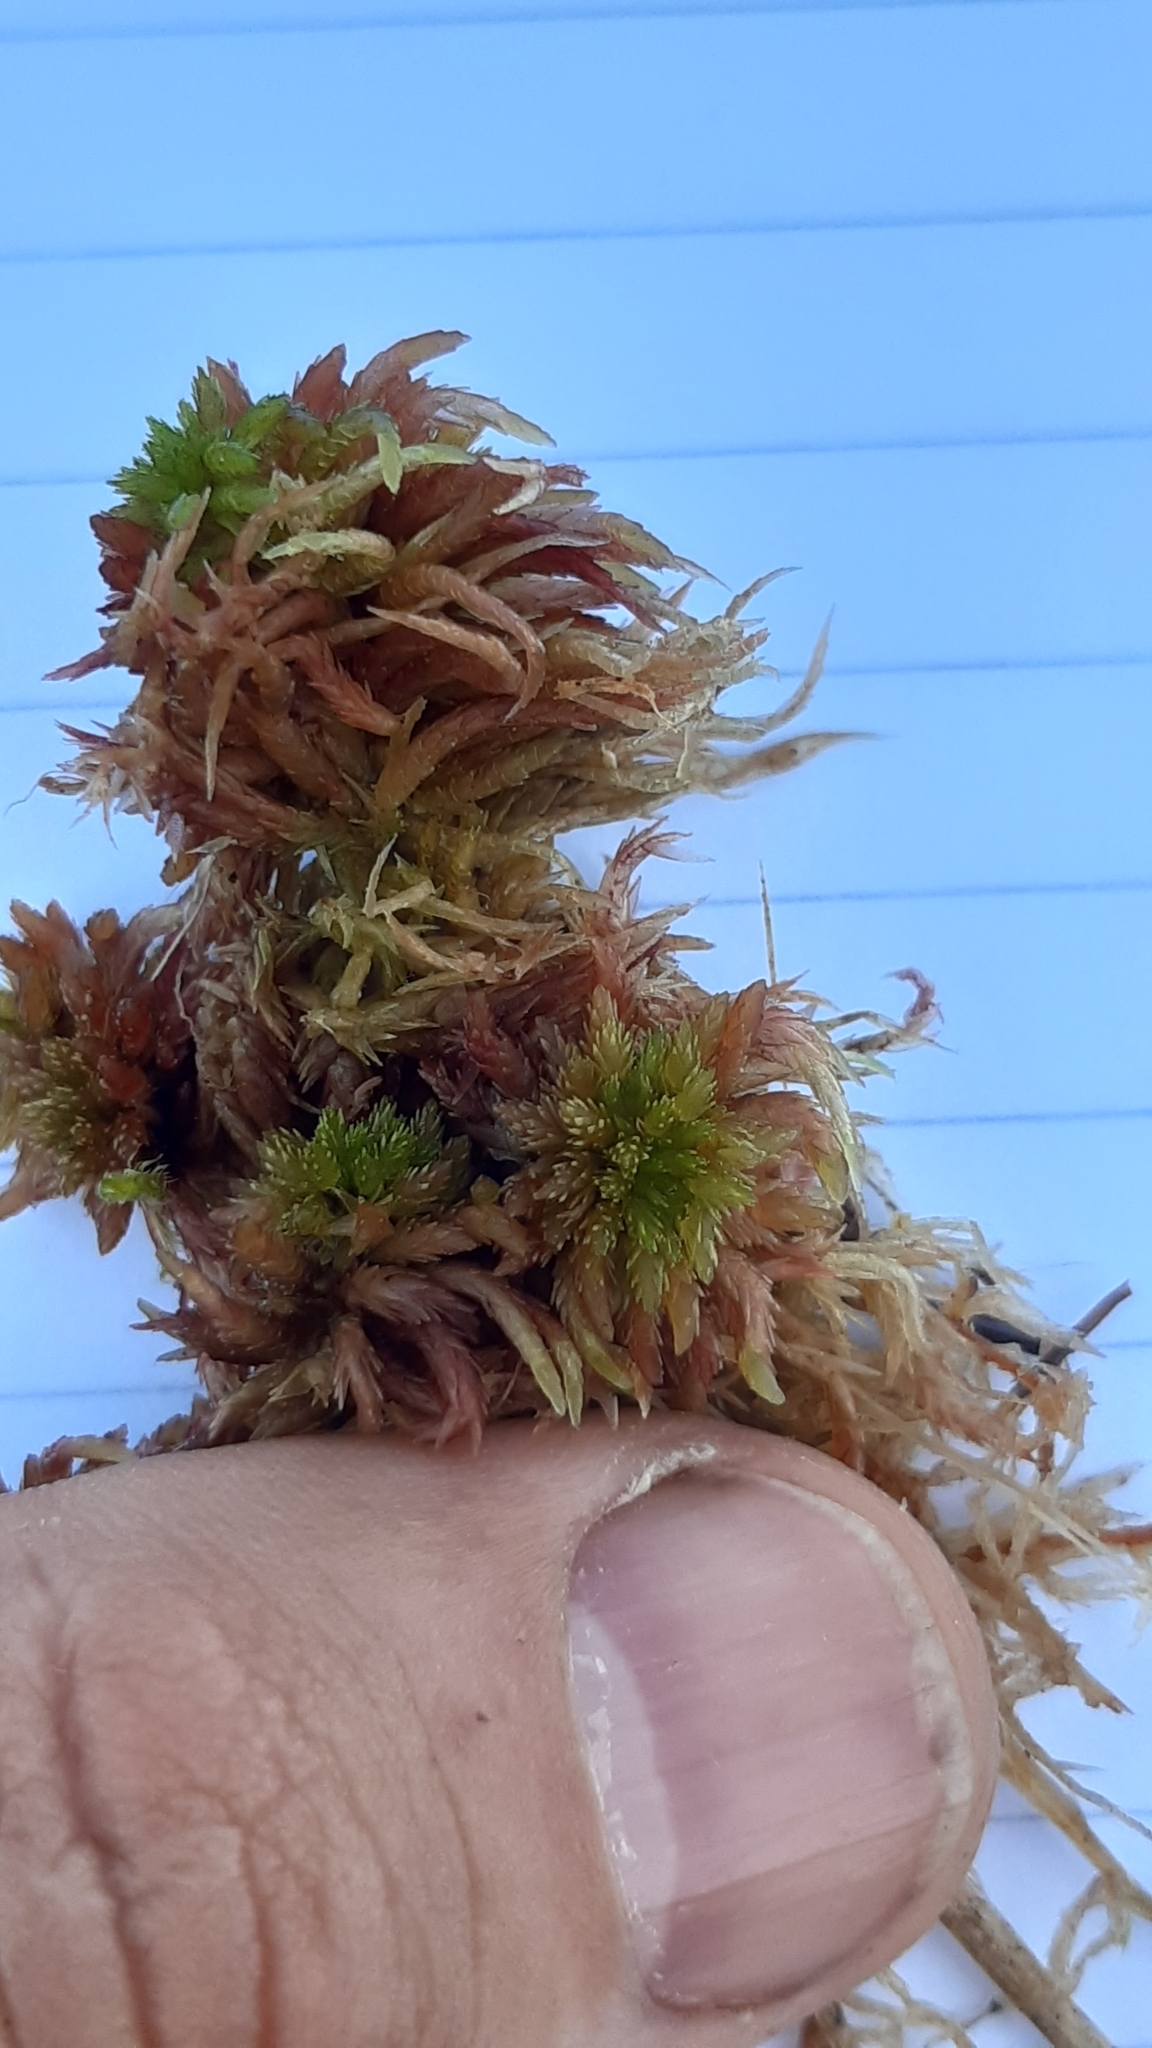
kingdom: Plantae
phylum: Bryophyta
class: Sphagnopsida
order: Sphagnales
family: Sphagnaceae
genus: Sphagnum
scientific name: Sphagnum subnitens
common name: Lustrous bog-moss
